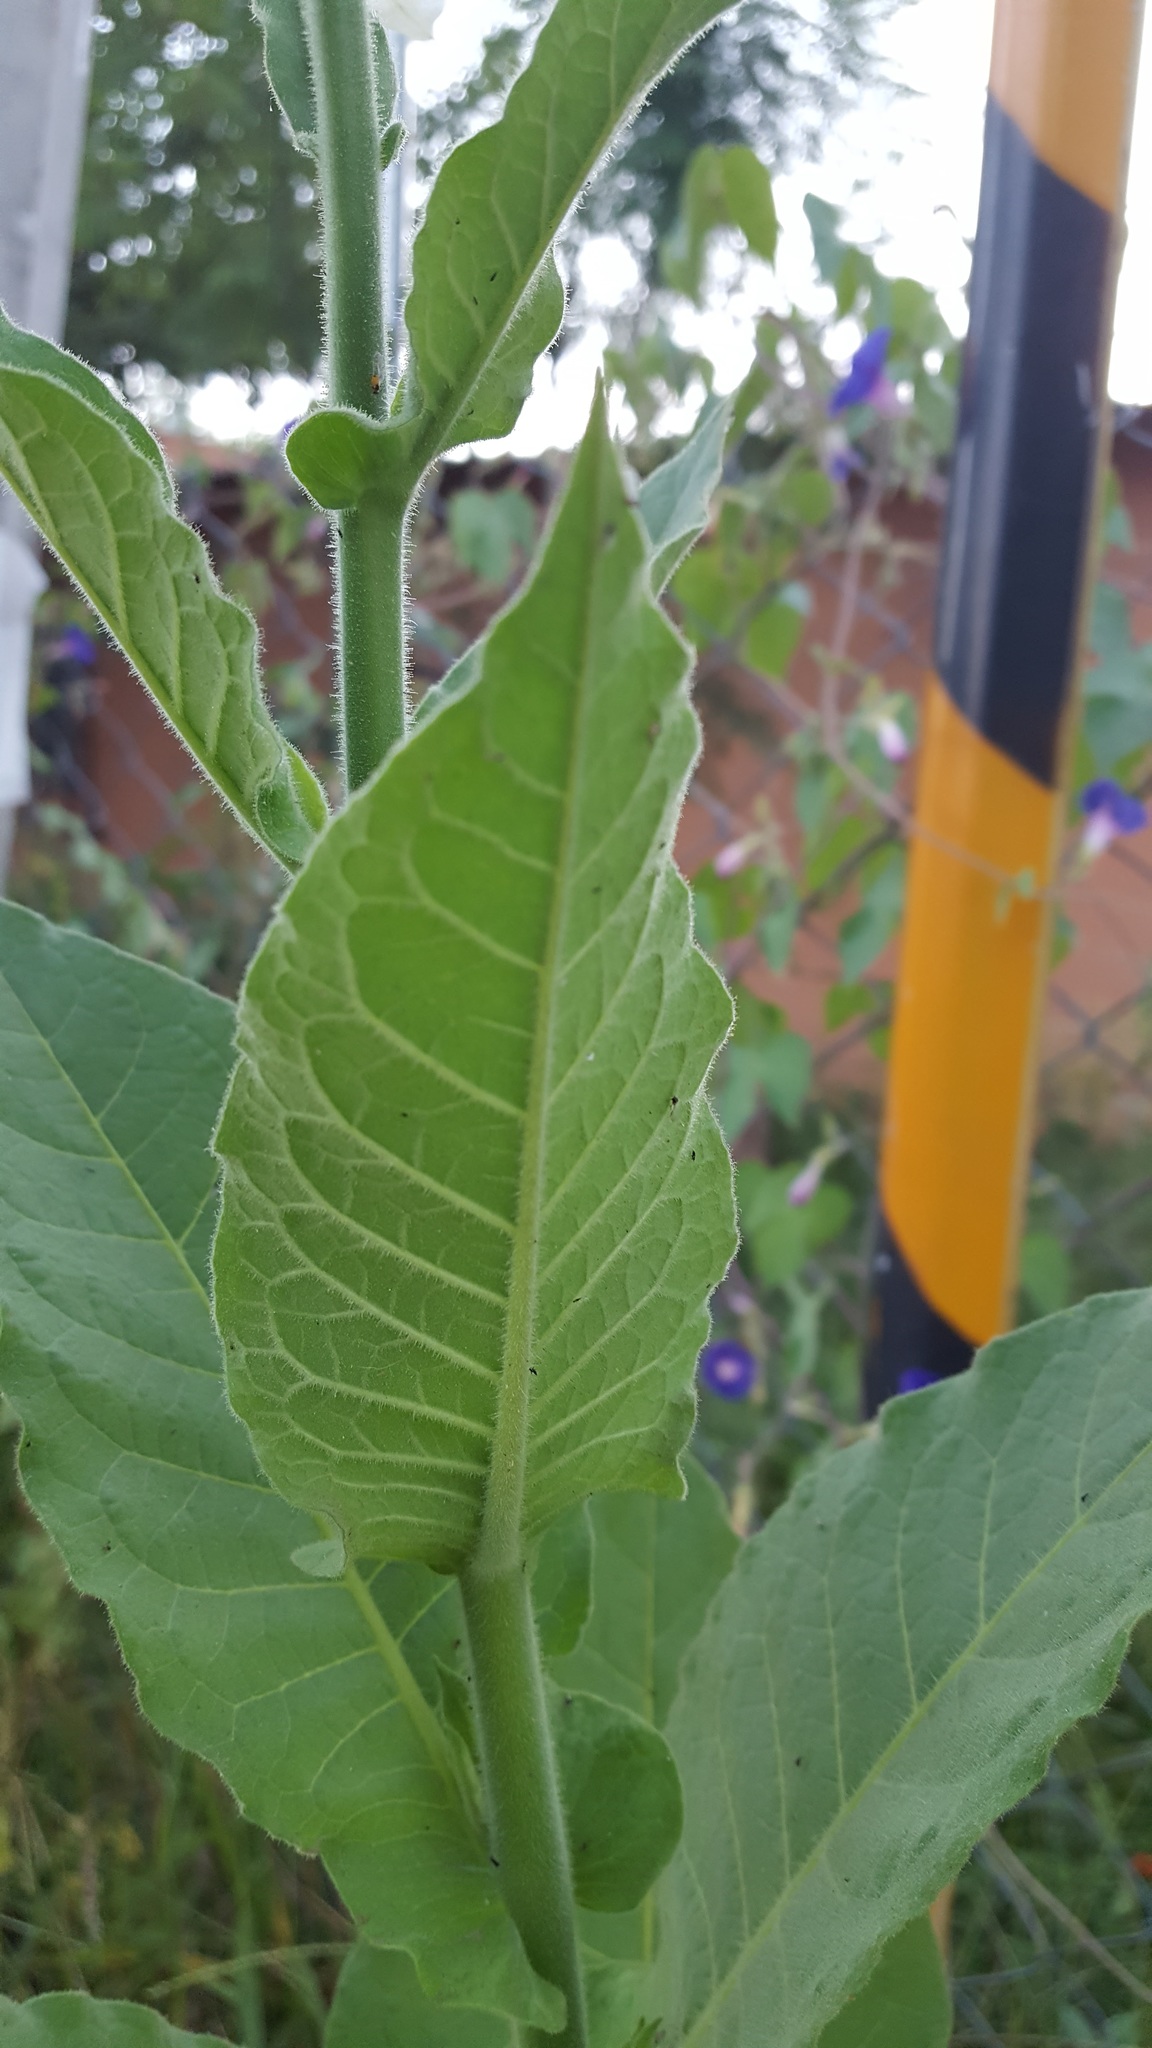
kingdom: Plantae
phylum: Tracheophyta
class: Magnoliopsida
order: Solanales
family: Solanaceae
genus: Nicotiana
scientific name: Nicotiana tabacum
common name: Tobacco
